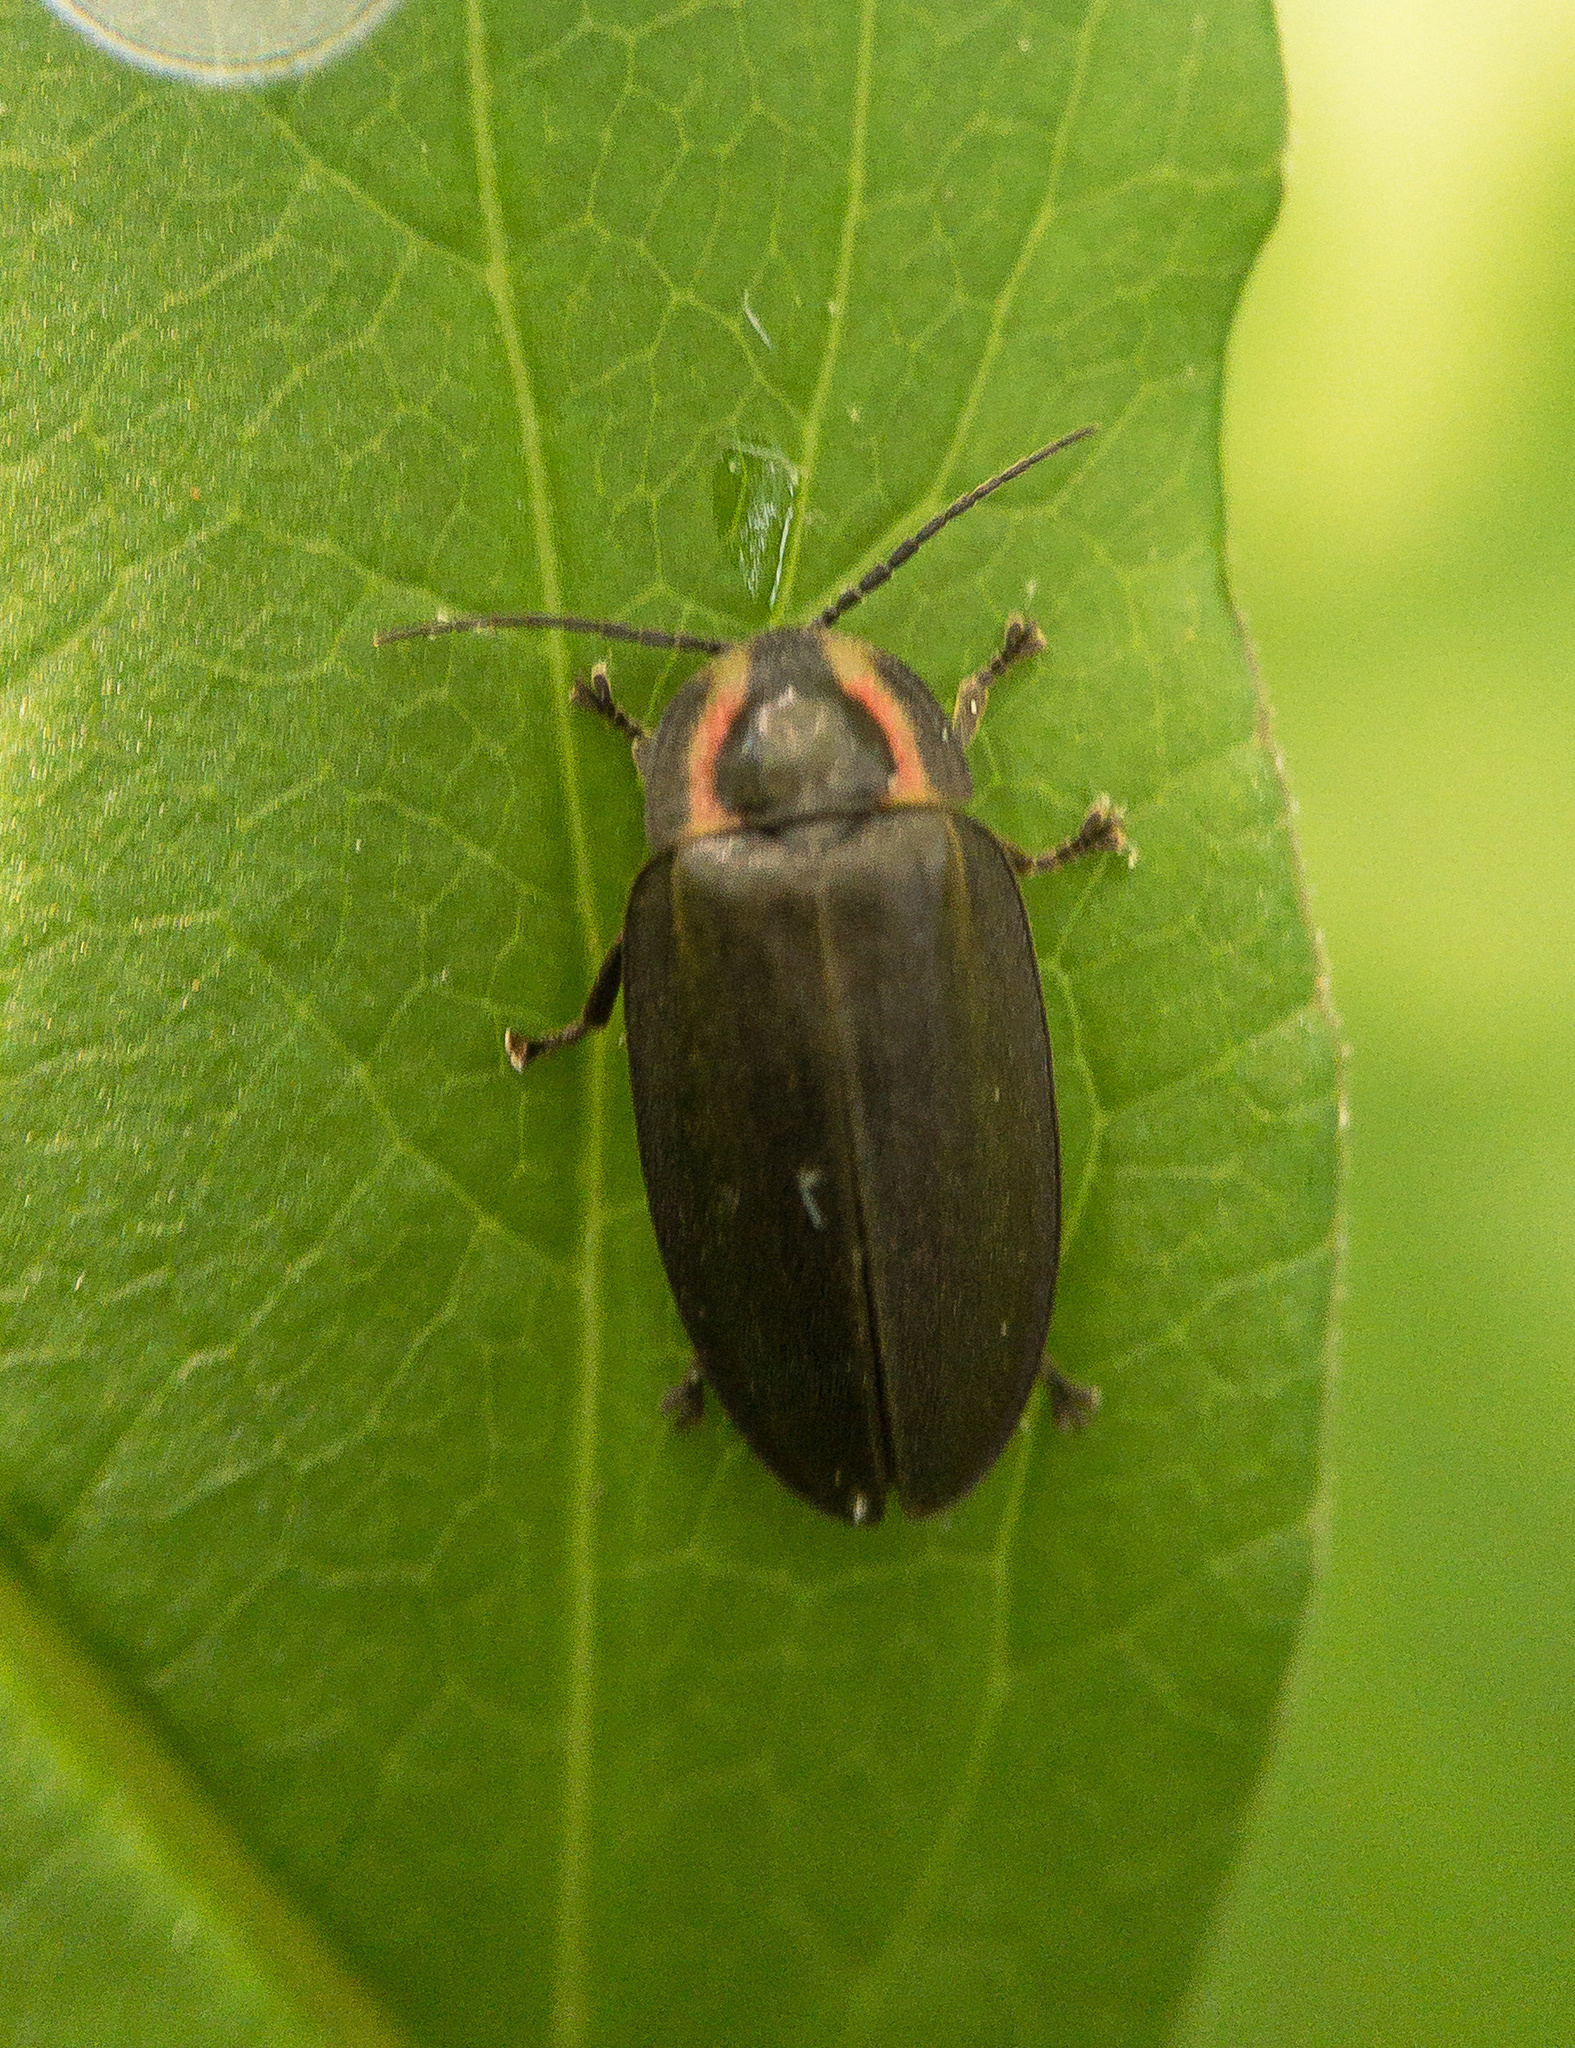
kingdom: Animalia
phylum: Arthropoda
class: Insecta
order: Coleoptera
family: Lampyridae
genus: Photinus
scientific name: Photinus corrusca
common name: Winter firefly
